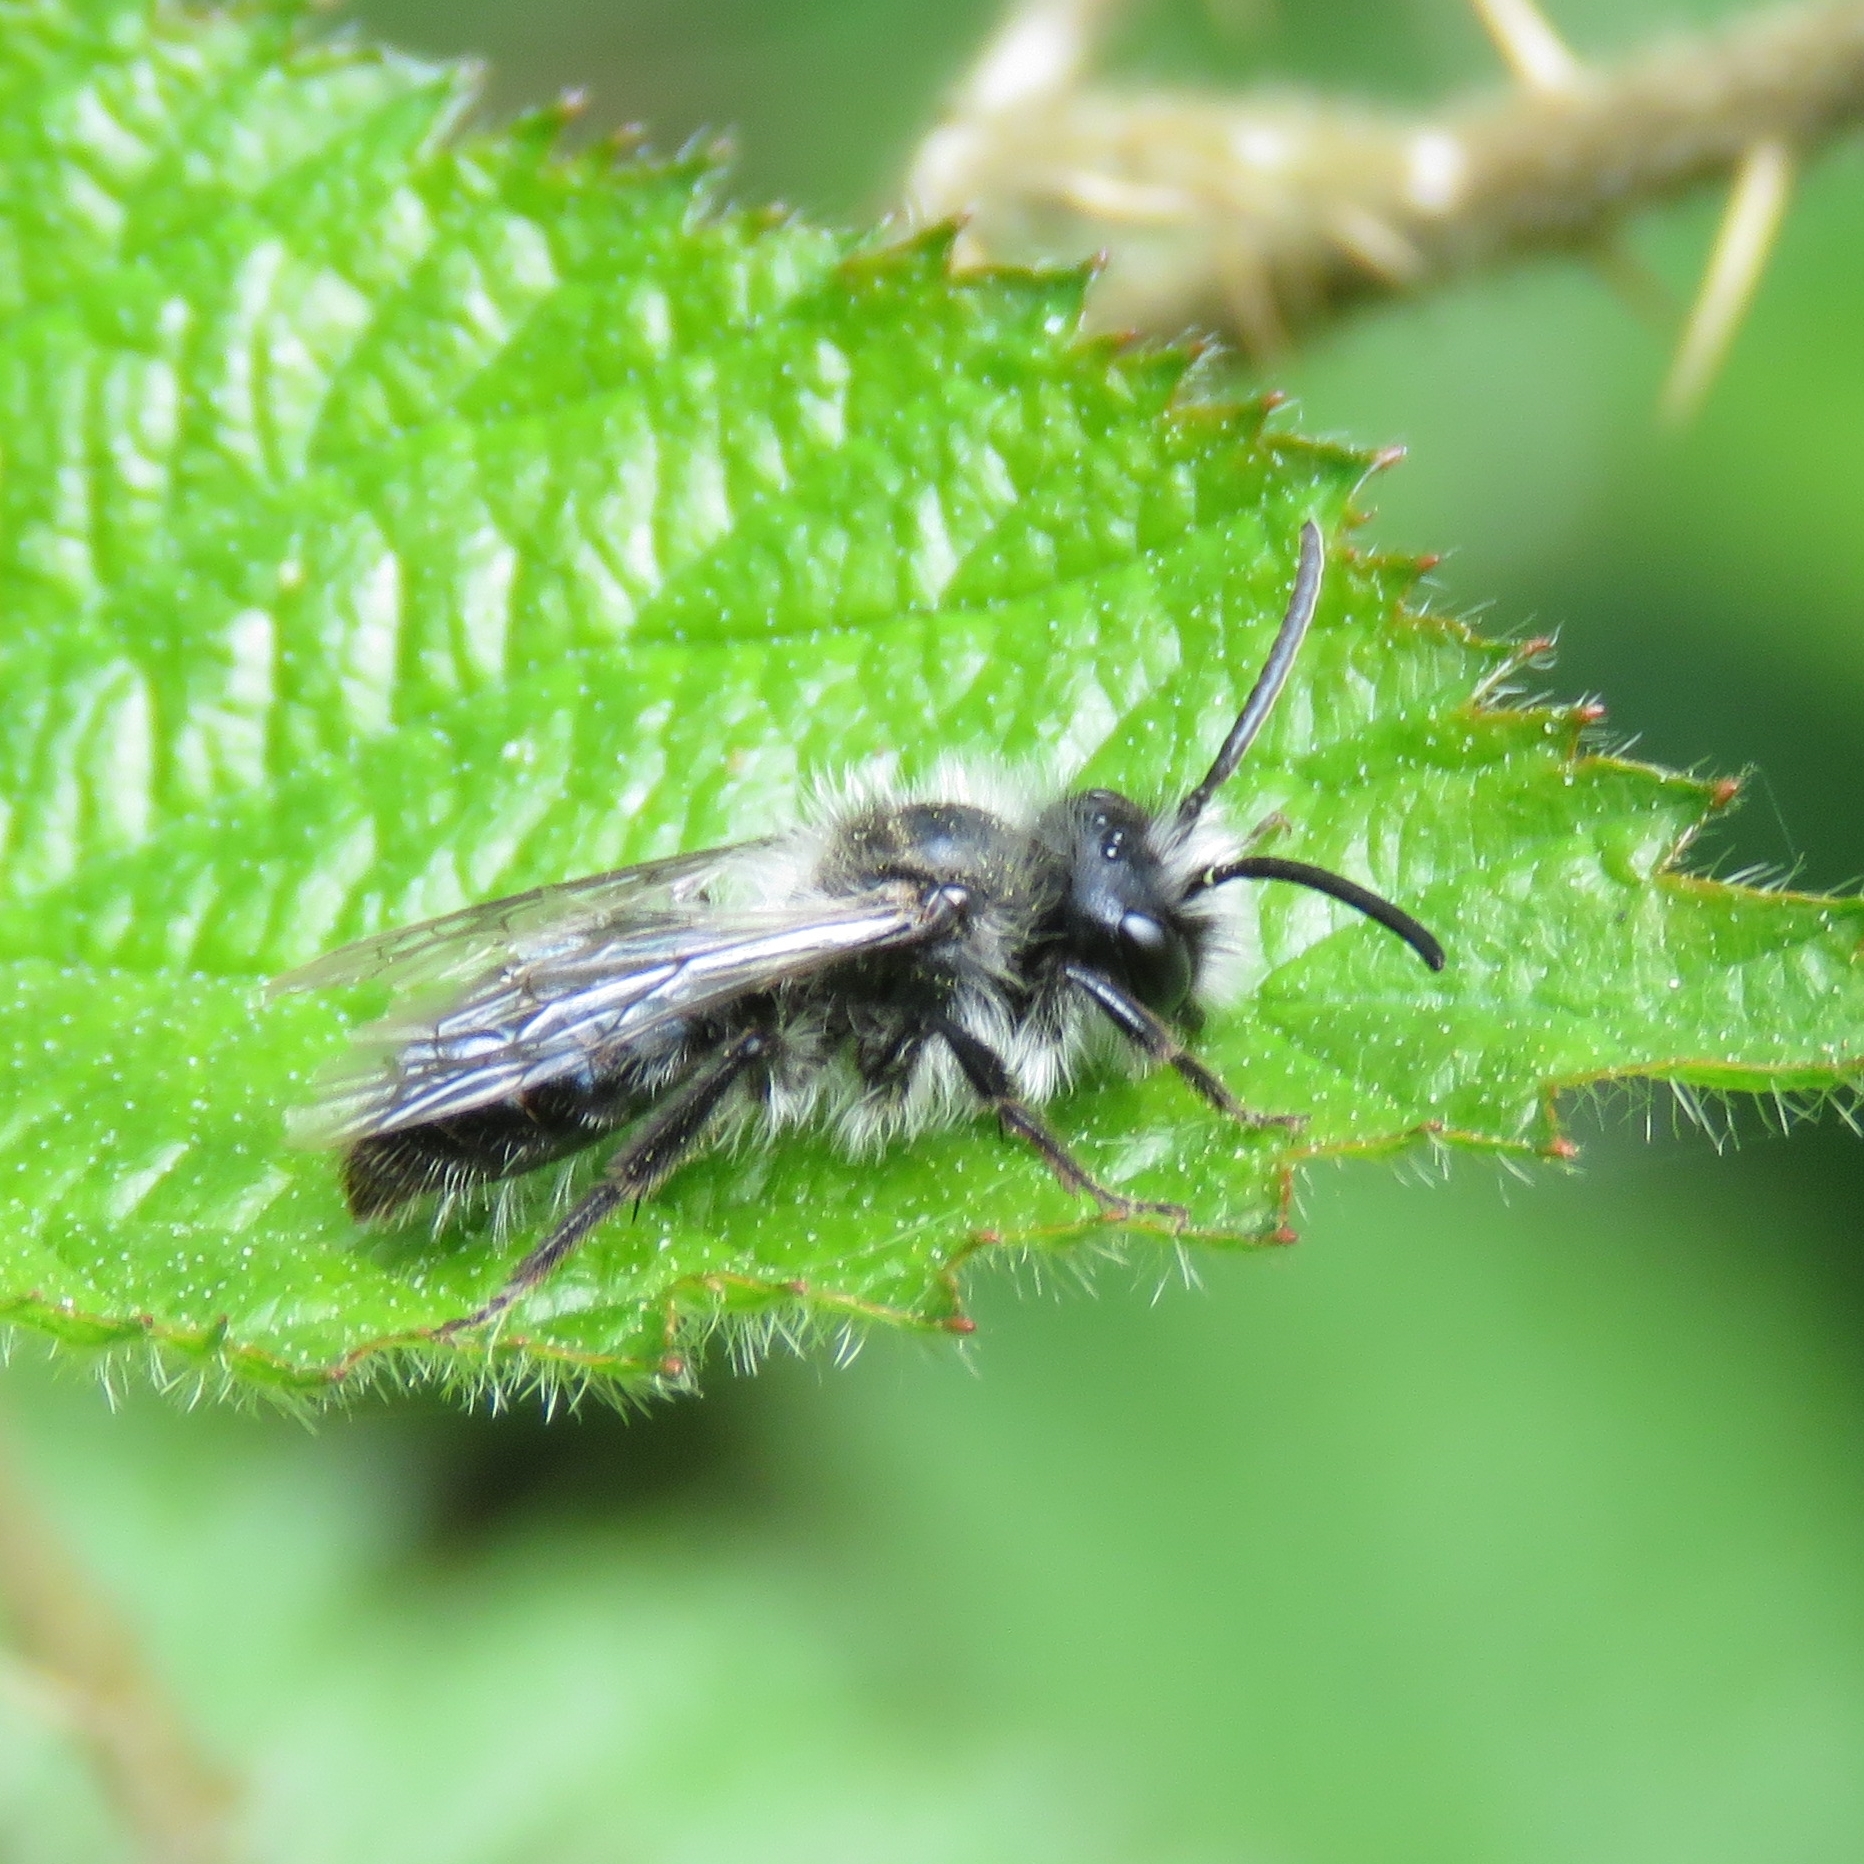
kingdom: Animalia
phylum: Arthropoda
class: Insecta
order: Hymenoptera
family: Andrenidae
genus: Andrena
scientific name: Andrena cineraria
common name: Ashy mining bee
